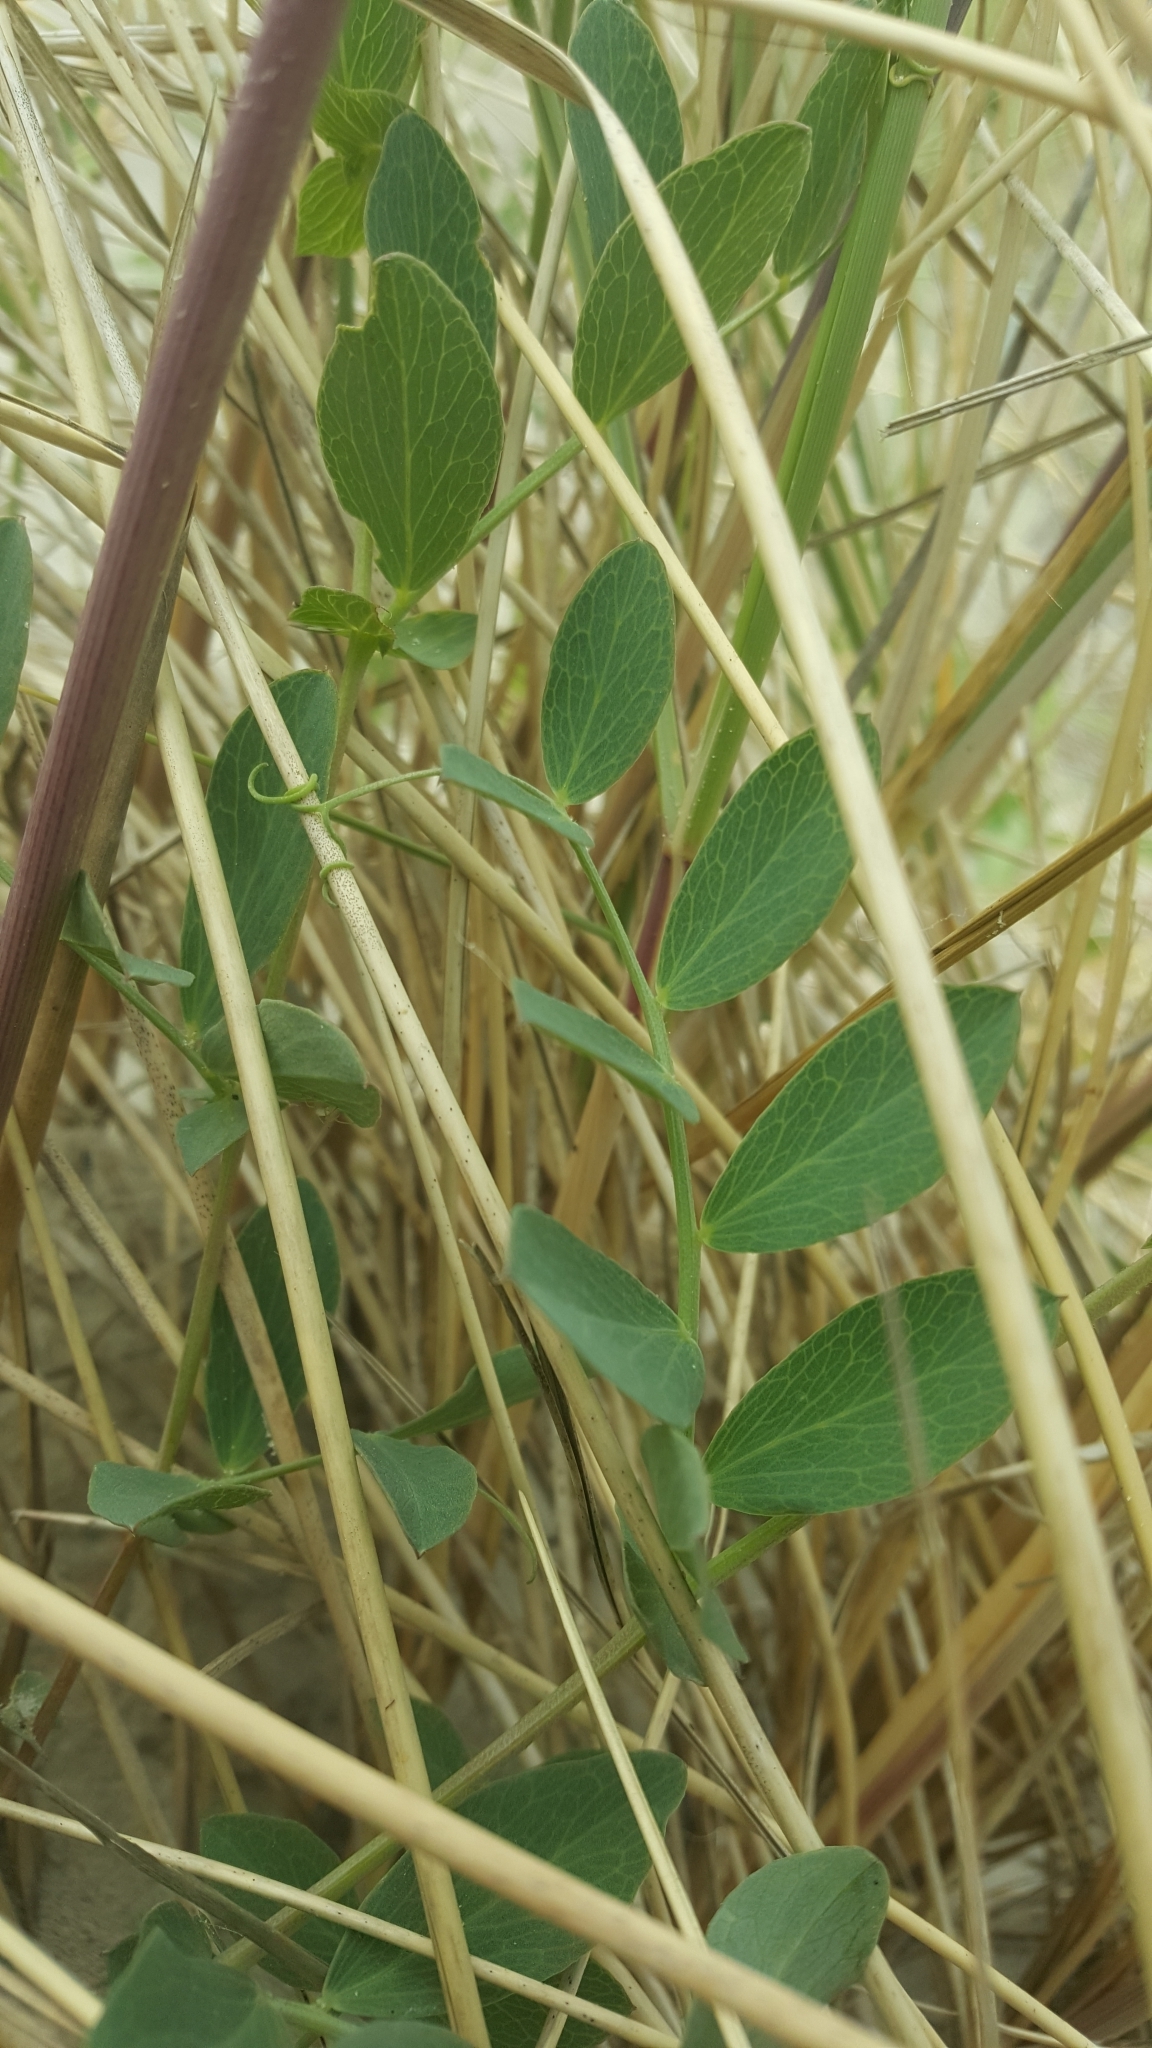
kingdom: Plantae
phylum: Tracheophyta
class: Magnoliopsida
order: Fabales
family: Fabaceae
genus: Lathyrus
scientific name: Lathyrus japonicus
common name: Sea pea
